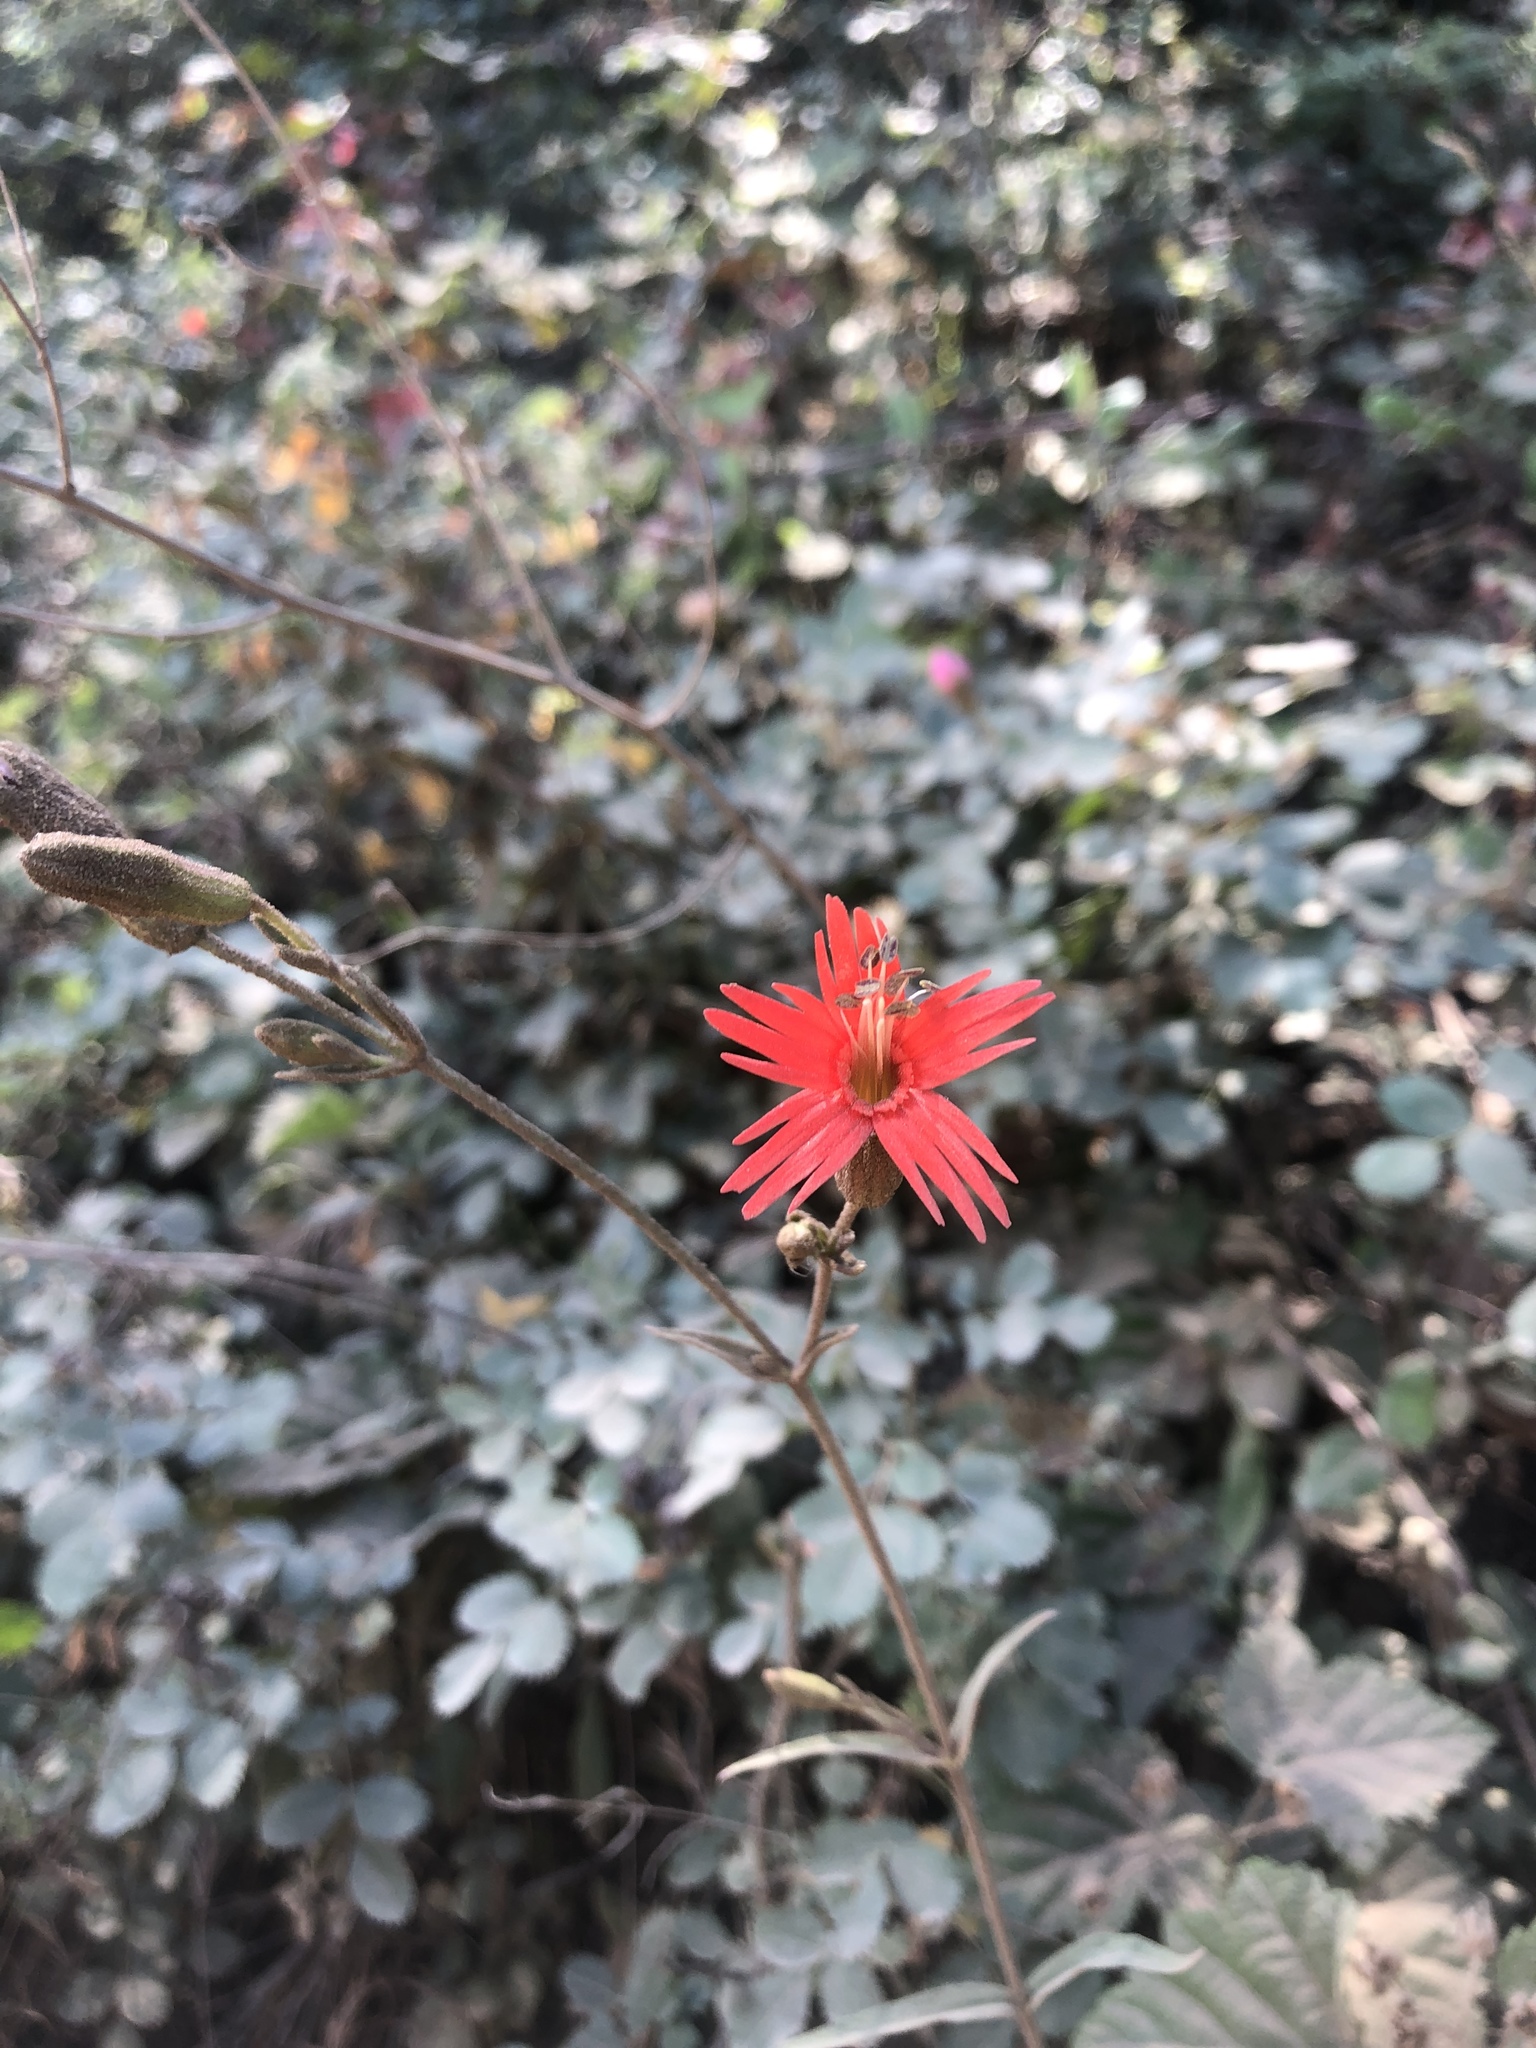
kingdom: Plantae
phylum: Tracheophyta
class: Magnoliopsida
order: Caryophyllales
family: Caryophyllaceae
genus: Silene
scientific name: Silene laciniata
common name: Indian-pink
